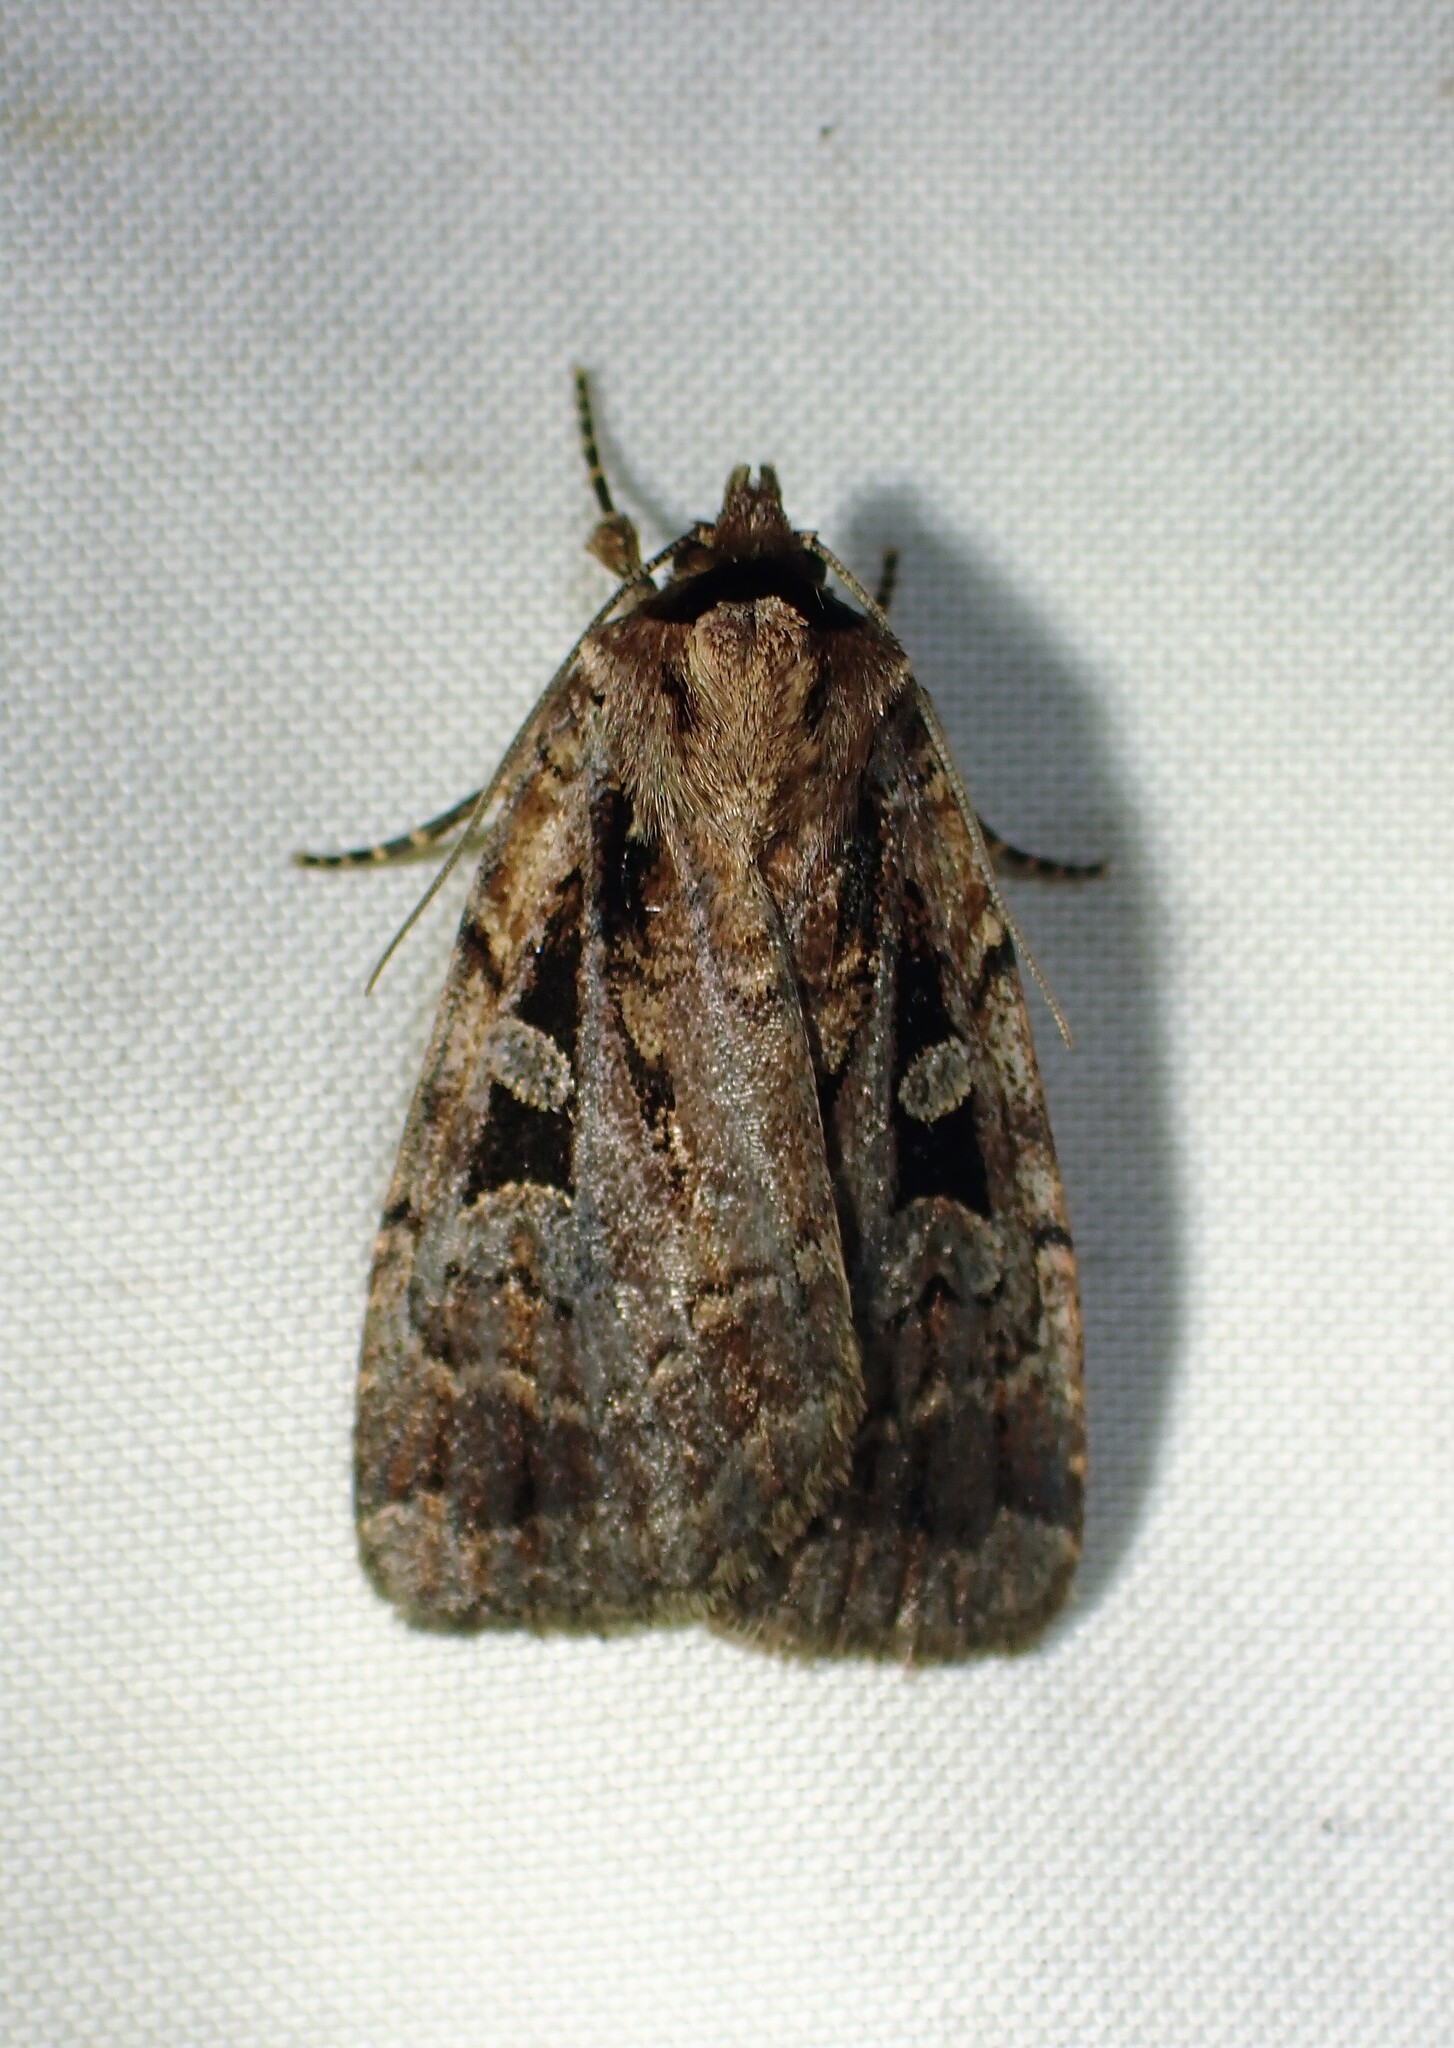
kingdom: Animalia
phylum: Arthropoda
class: Insecta
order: Lepidoptera
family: Noctuidae
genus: Eueretagrotis
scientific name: Eueretagrotis perattentus
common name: Two-spot dart moth
